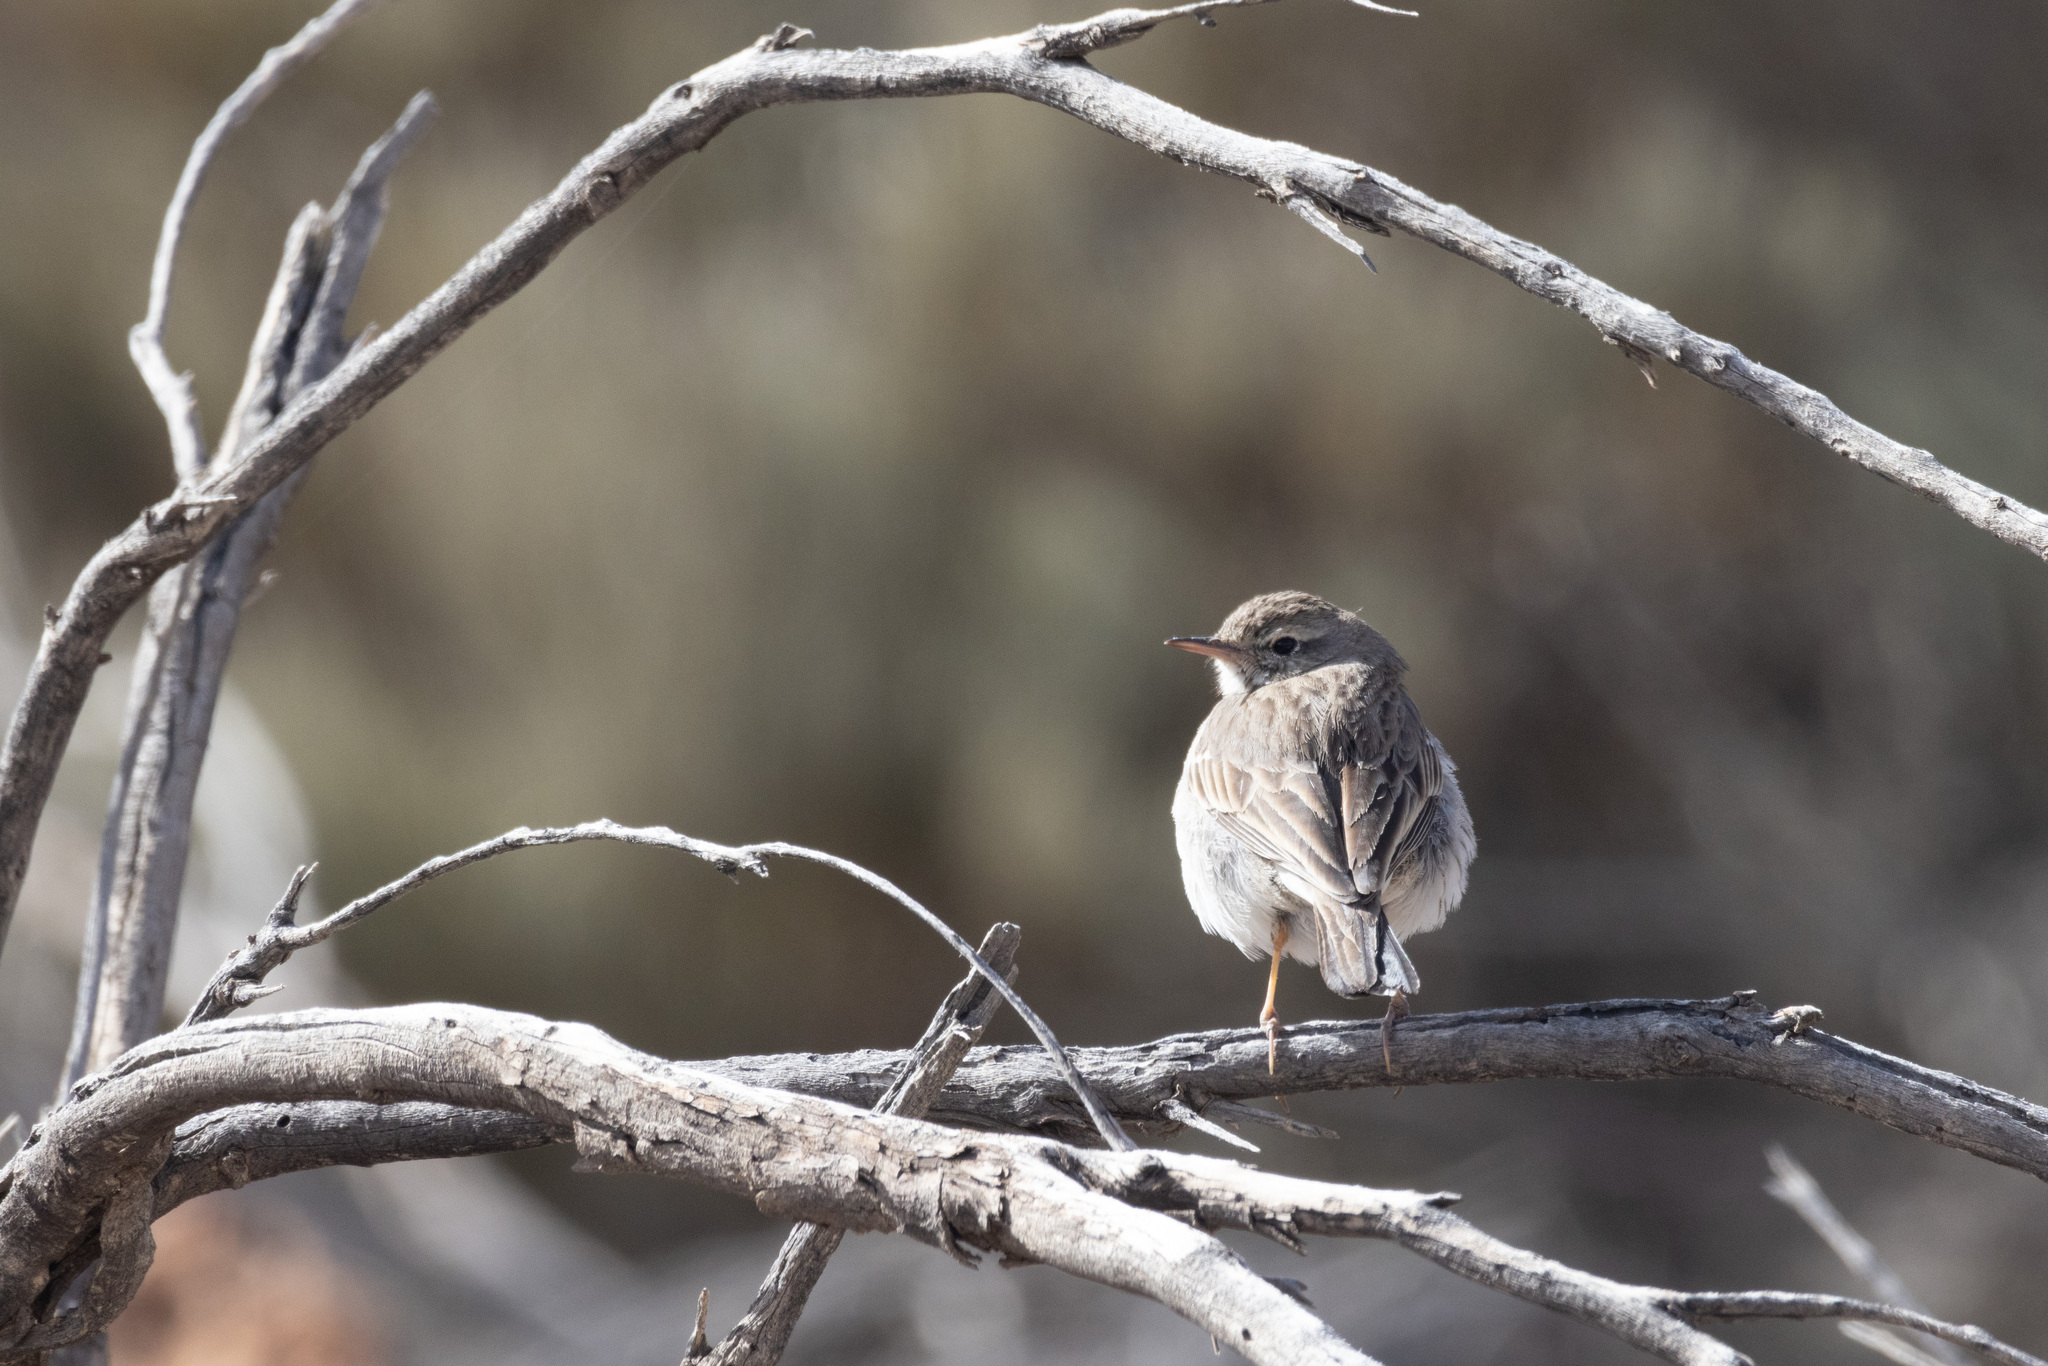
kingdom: Animalia
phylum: Chordata
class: Aves
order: Passeriformes
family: Motacillidae
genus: Anthus
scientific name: Anthus berthelotii
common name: Berthelot's pipit
